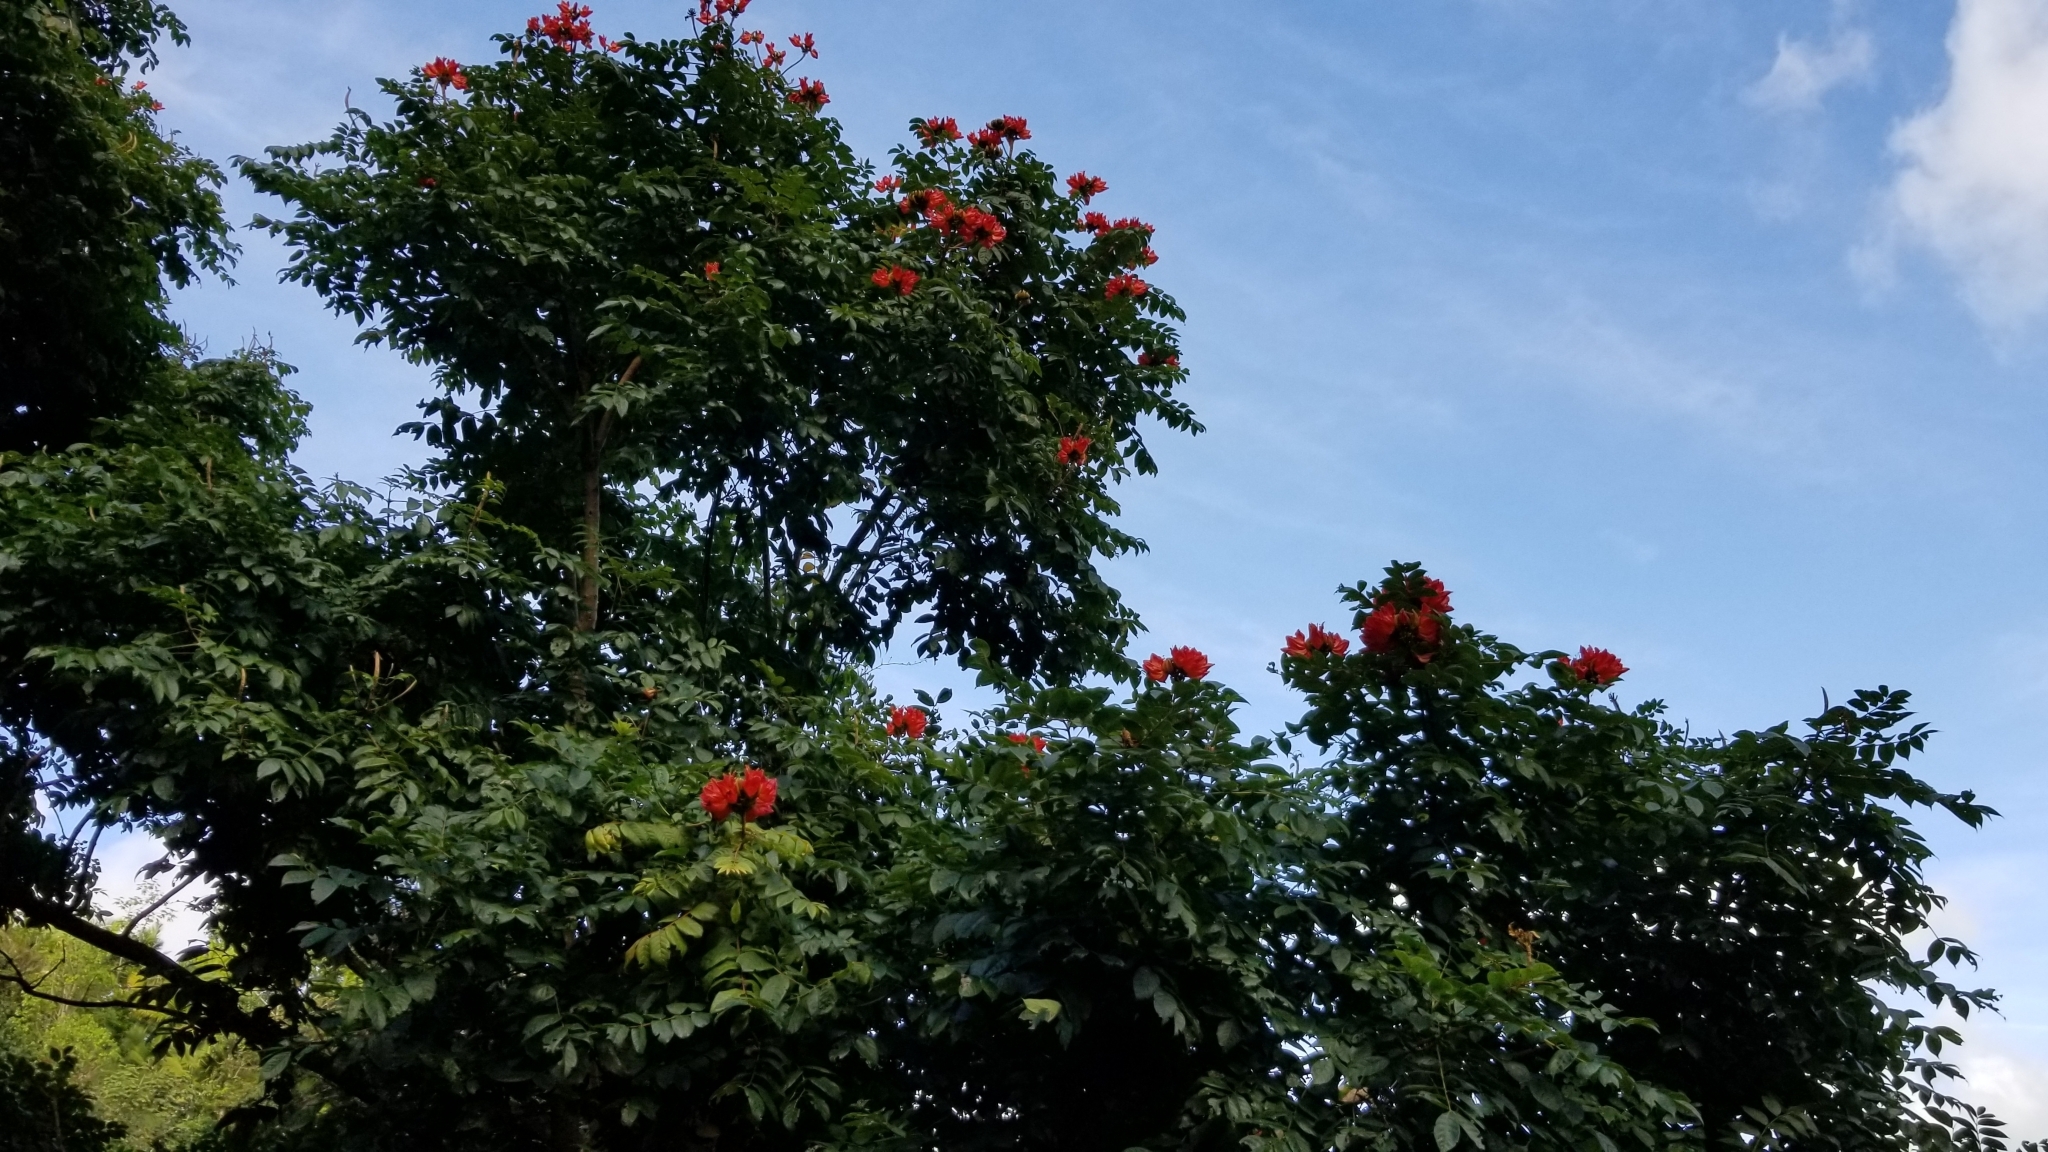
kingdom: Plantae
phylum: Tracheophyta
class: Magnoliopsida
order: Lamiales
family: Bignoniaceae
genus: Spathodea
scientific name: Spathodea campanulata
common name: African tuliptree
